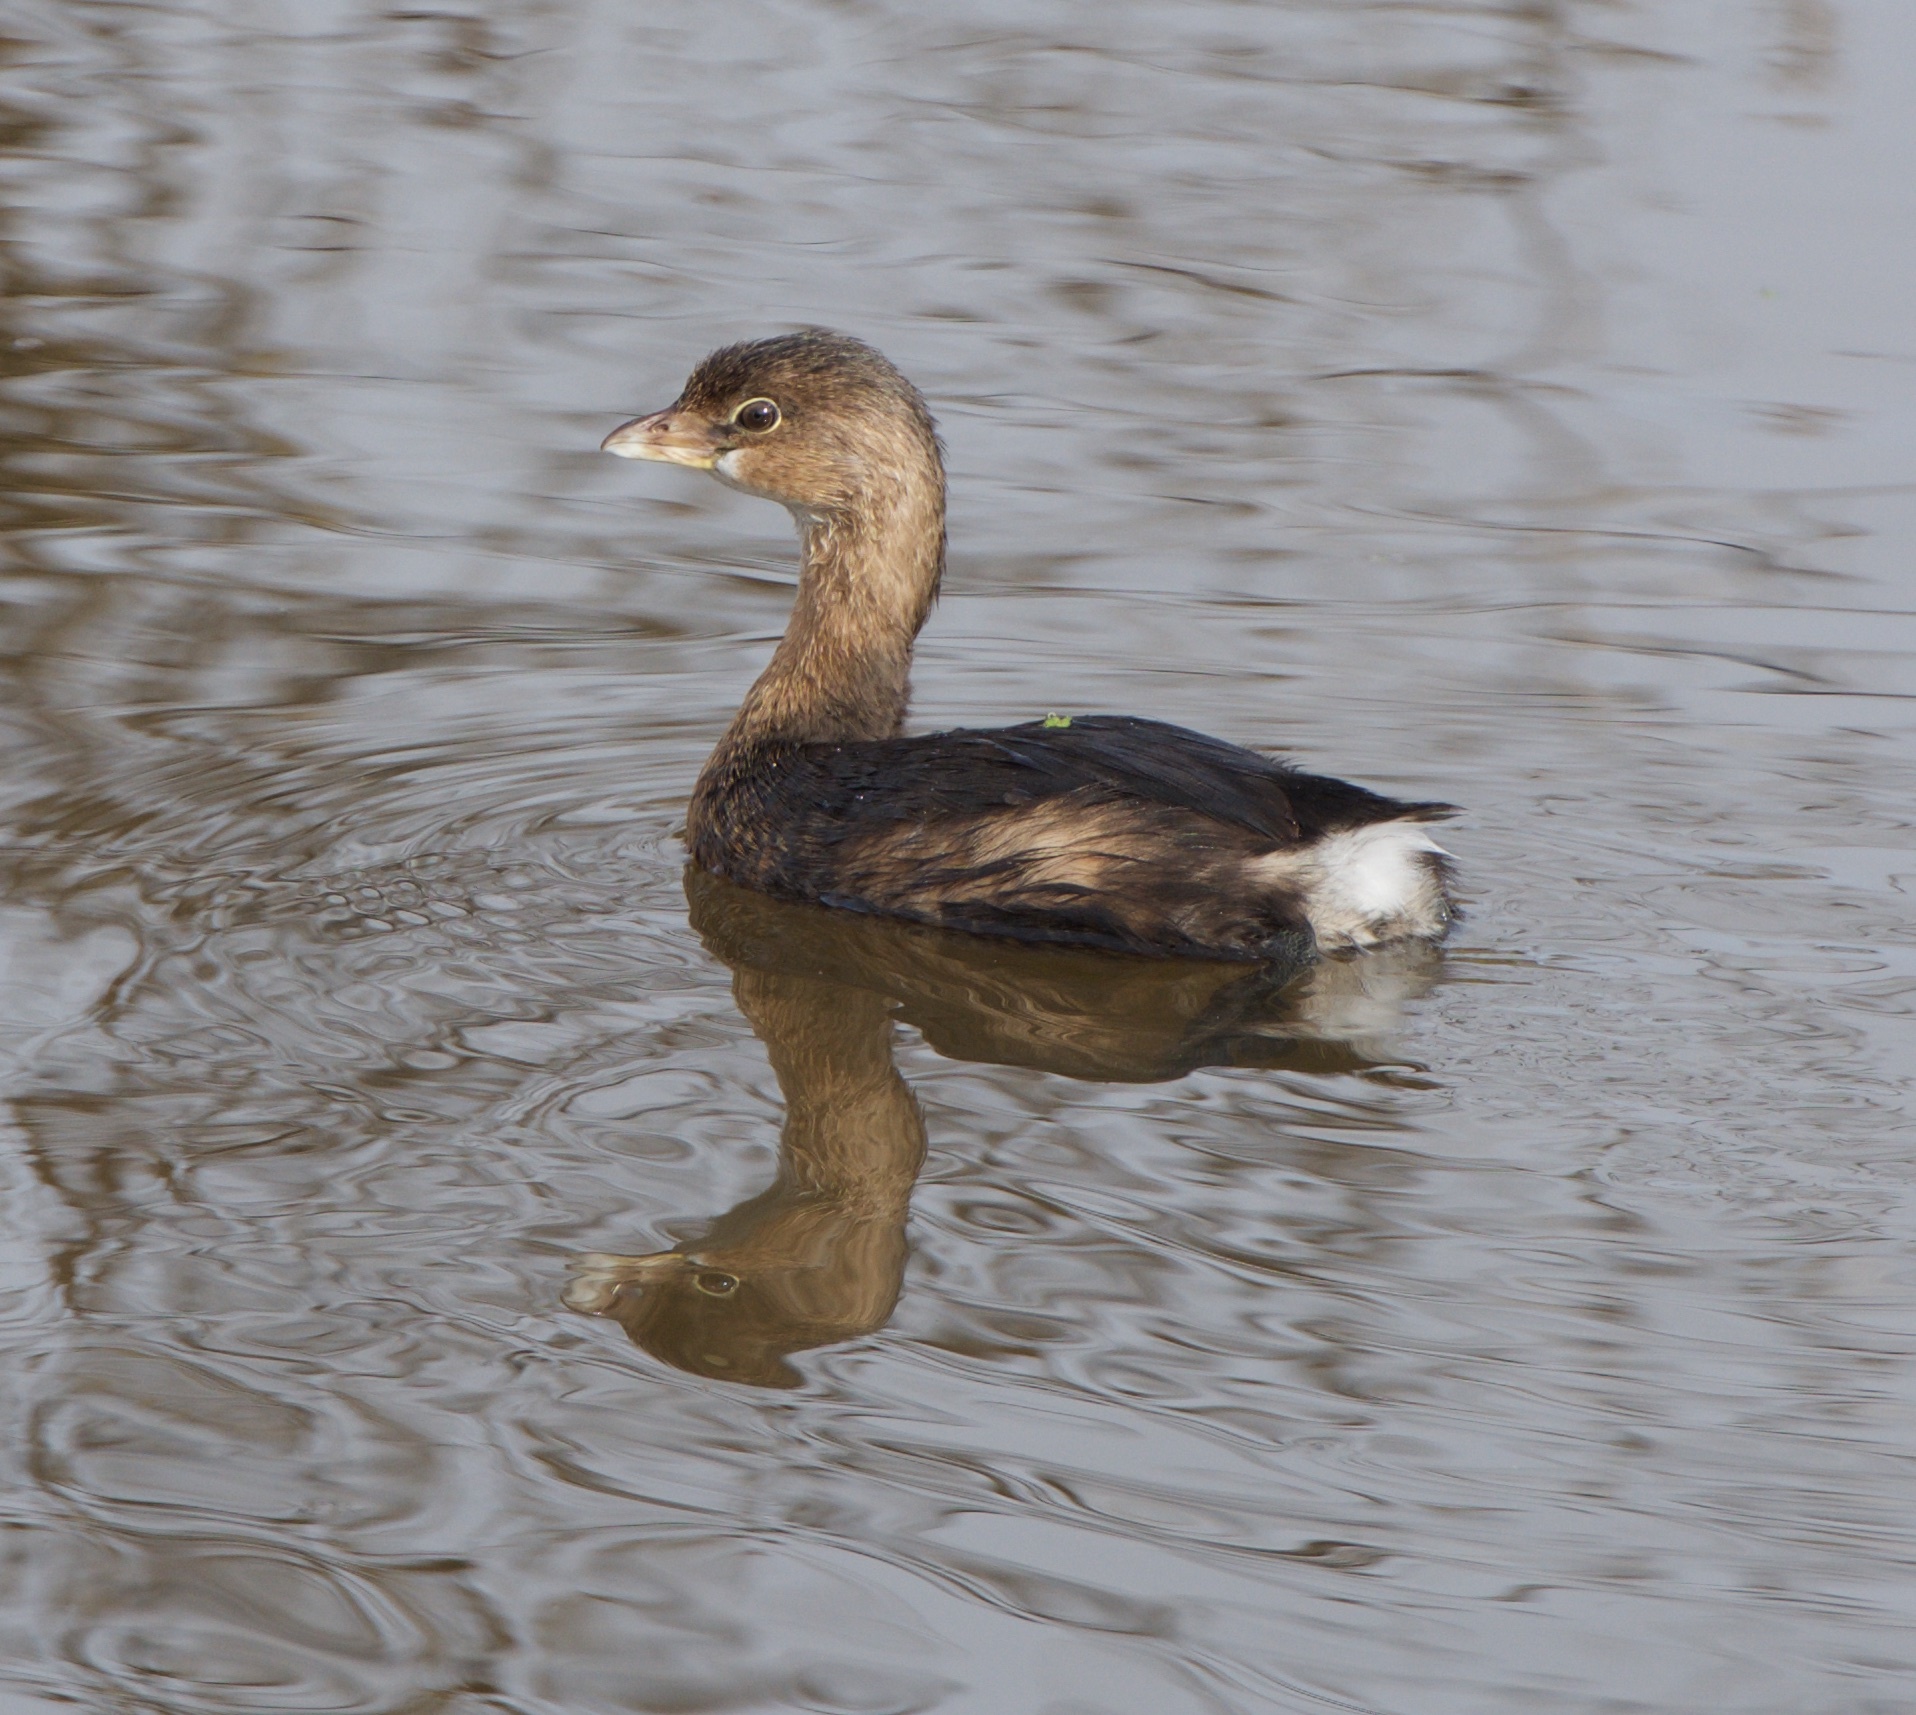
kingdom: Animalia
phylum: Chordata
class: Aves
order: Podicipediformes
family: Podicipedidae
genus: Podilymbus
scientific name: Podilymbus podiceps
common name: Pied-billed grebe
